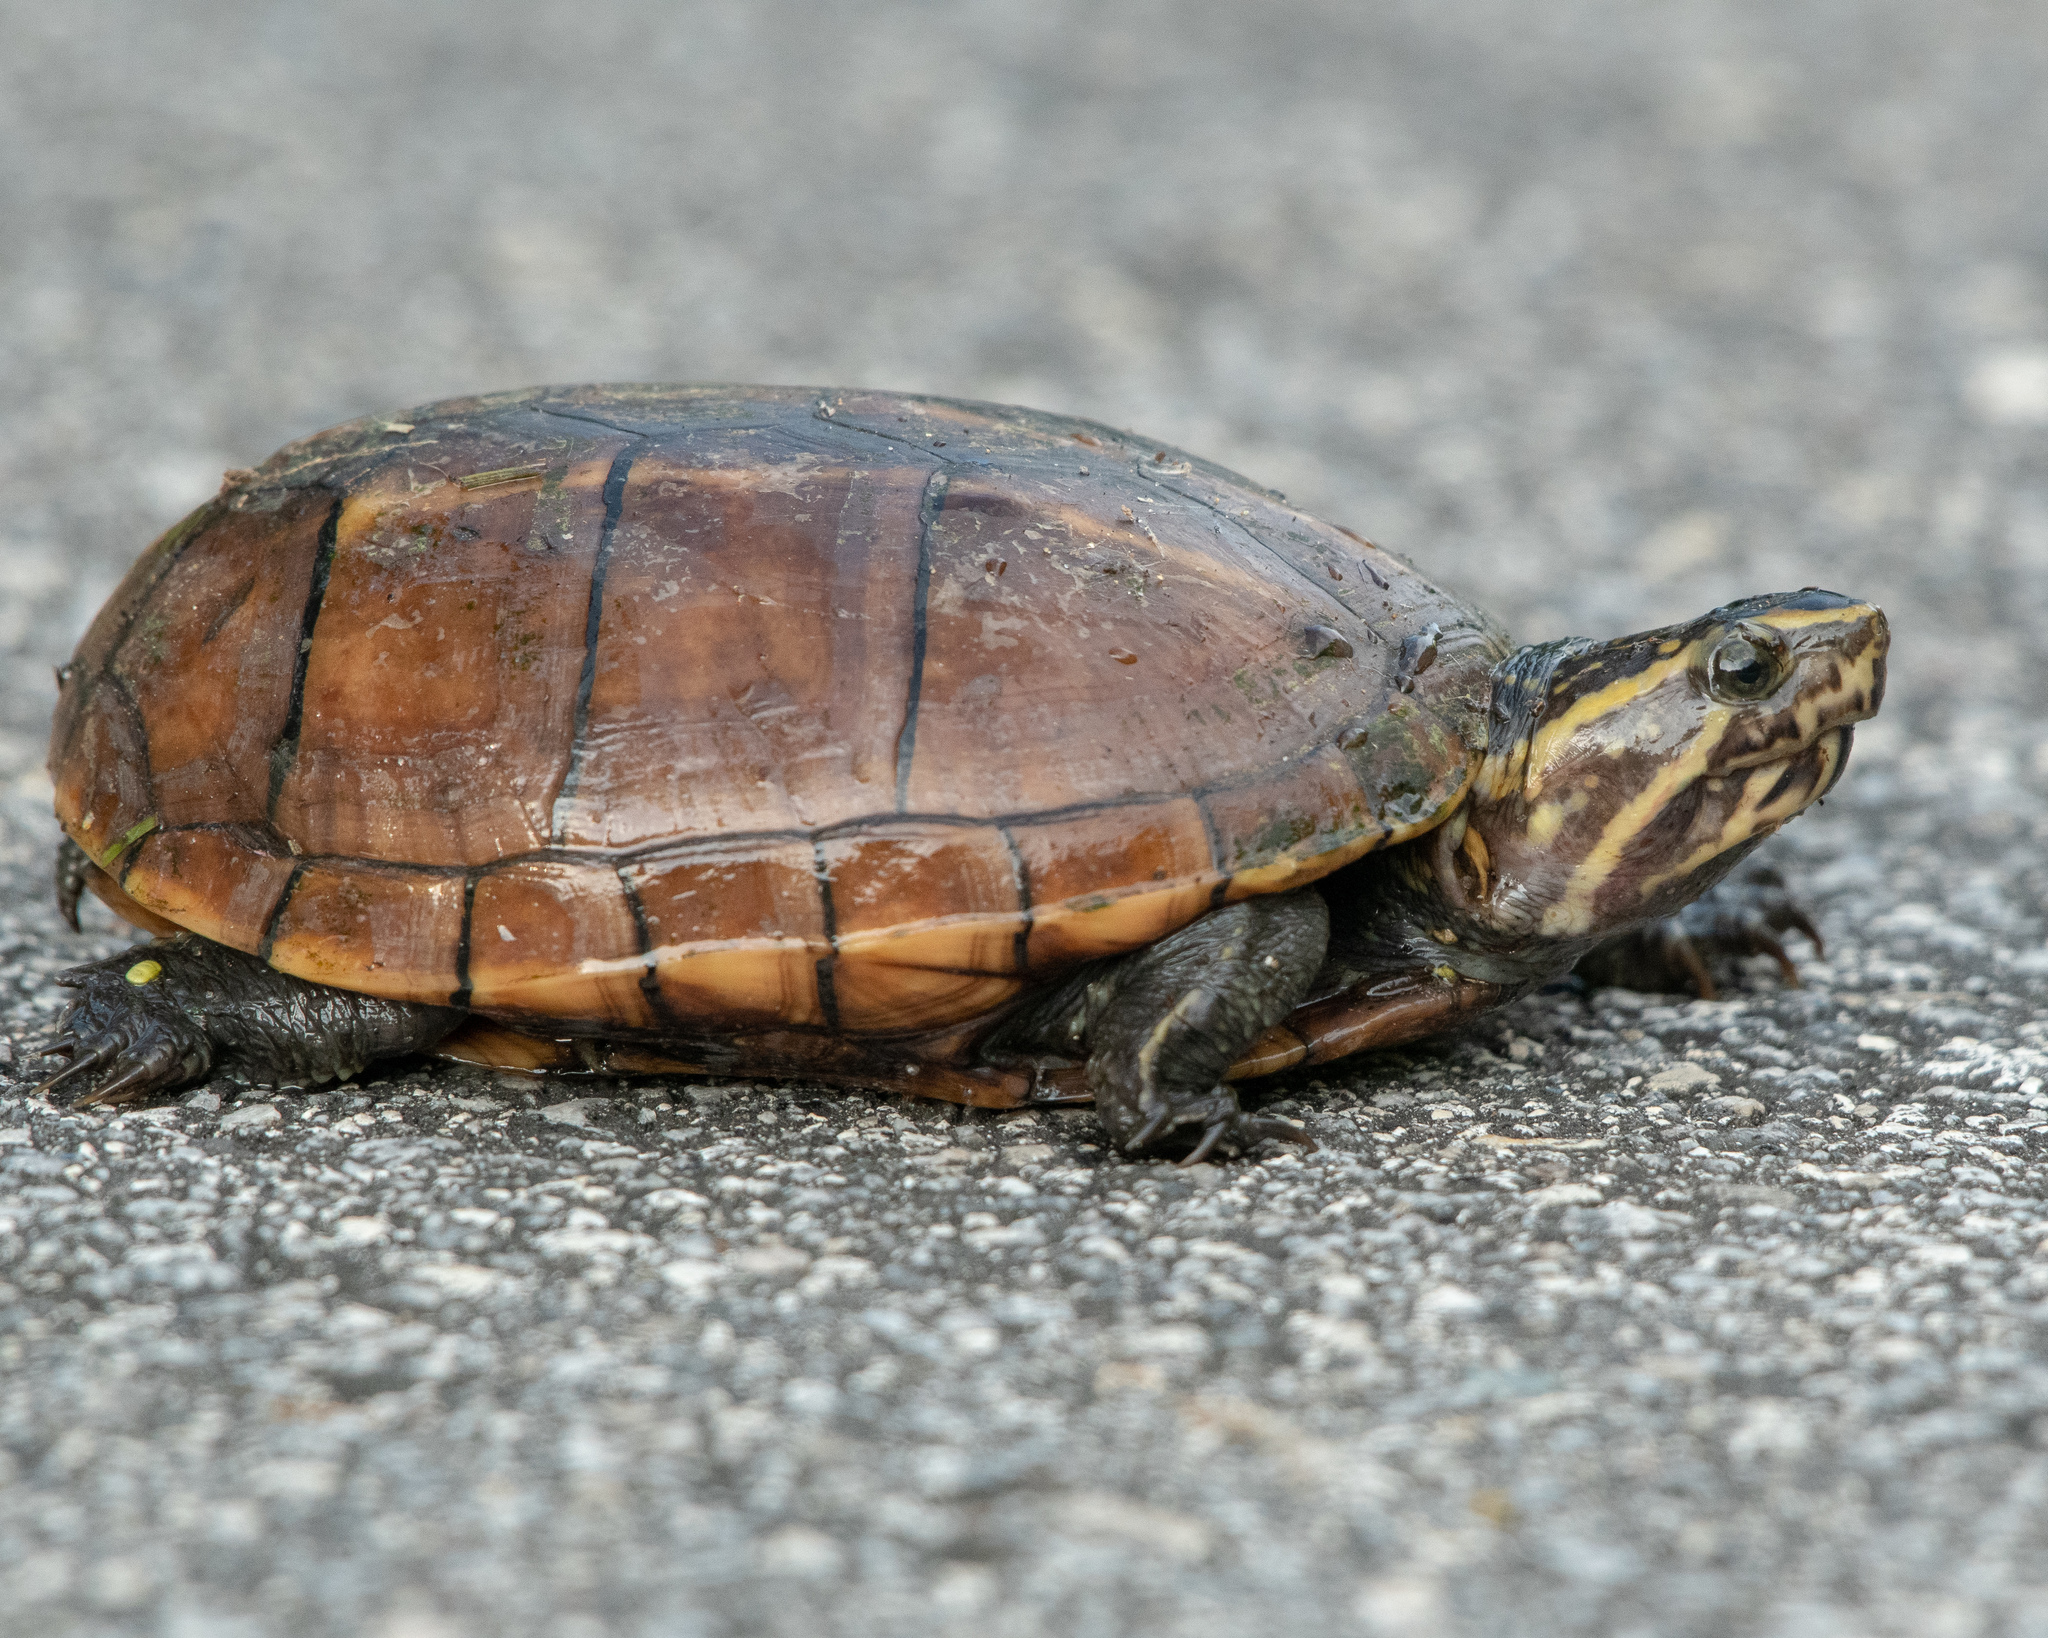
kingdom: Animalia
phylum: Chordata
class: Testudines
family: Kinosternidae
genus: Kinosternon
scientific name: Kinosternon baurii
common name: Striped mud turtle
